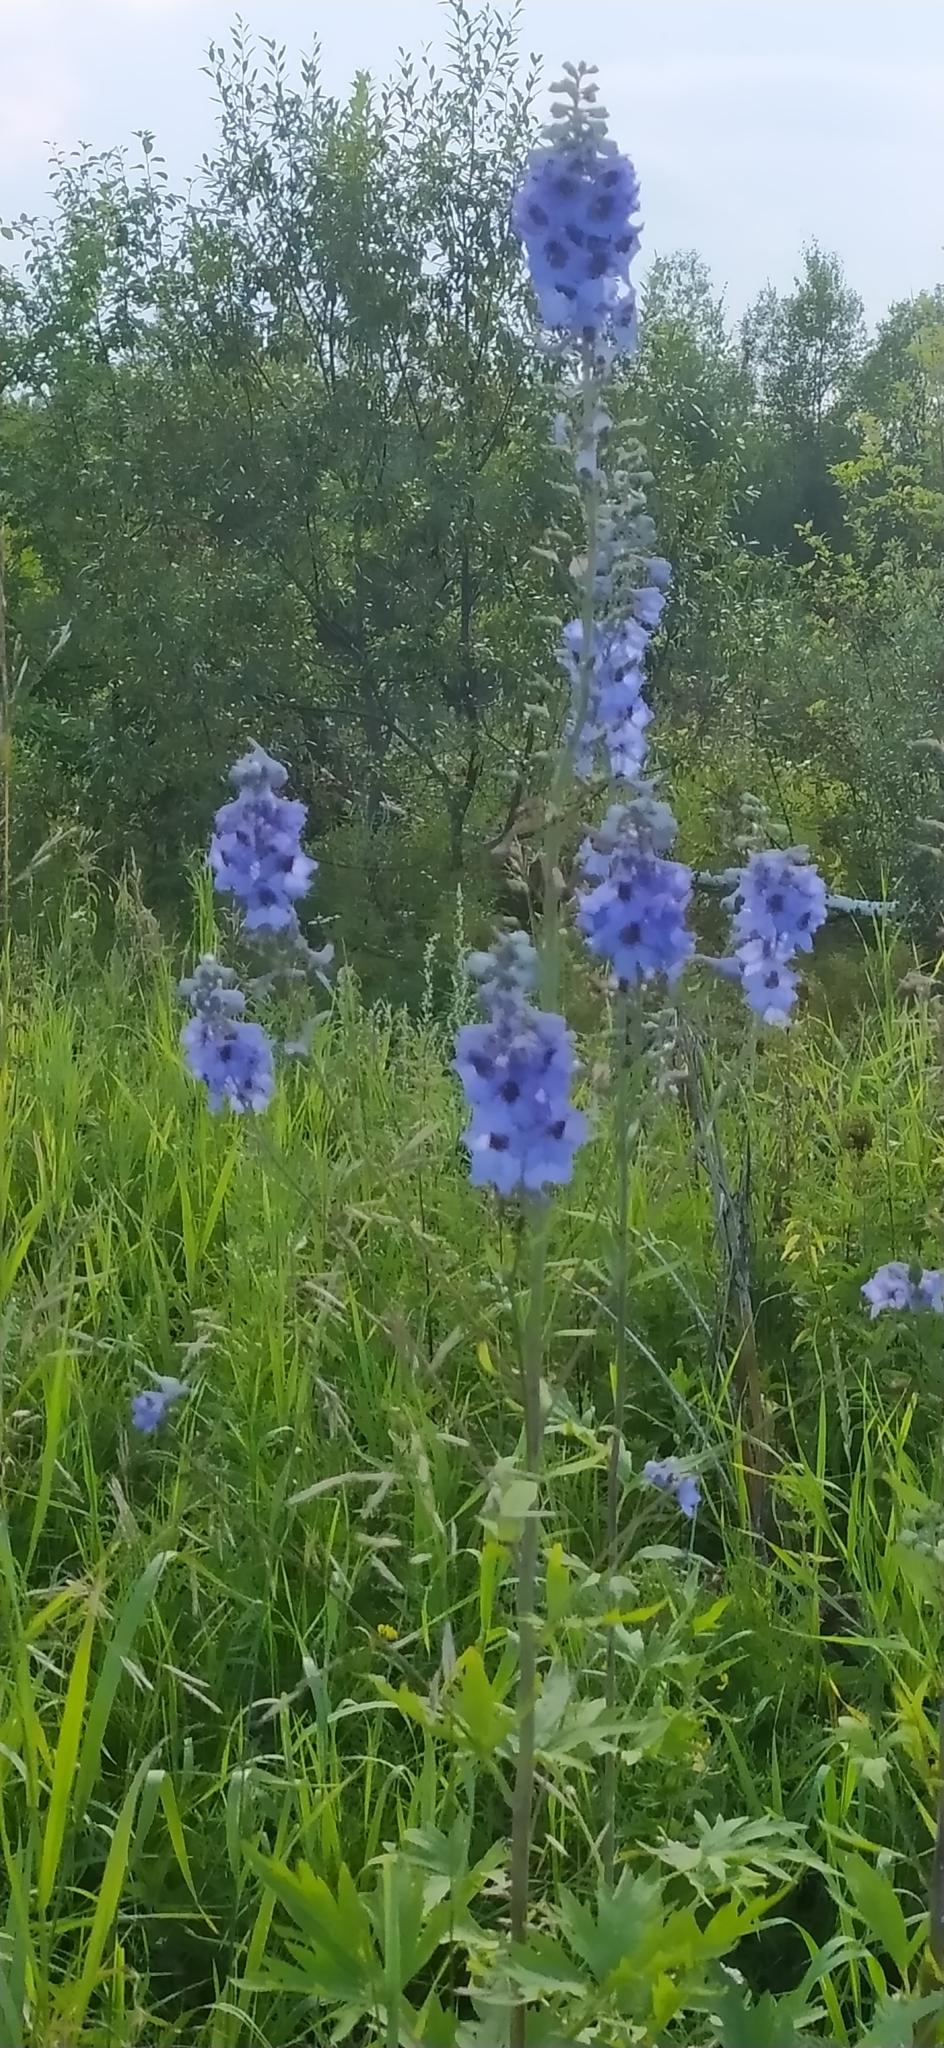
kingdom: Plantae
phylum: Tracheophyta
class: Magnoliopsida
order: Ranunculales
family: Ranunculaceae
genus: Delphinium
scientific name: Delphinium elatum
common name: Candle larkspur
